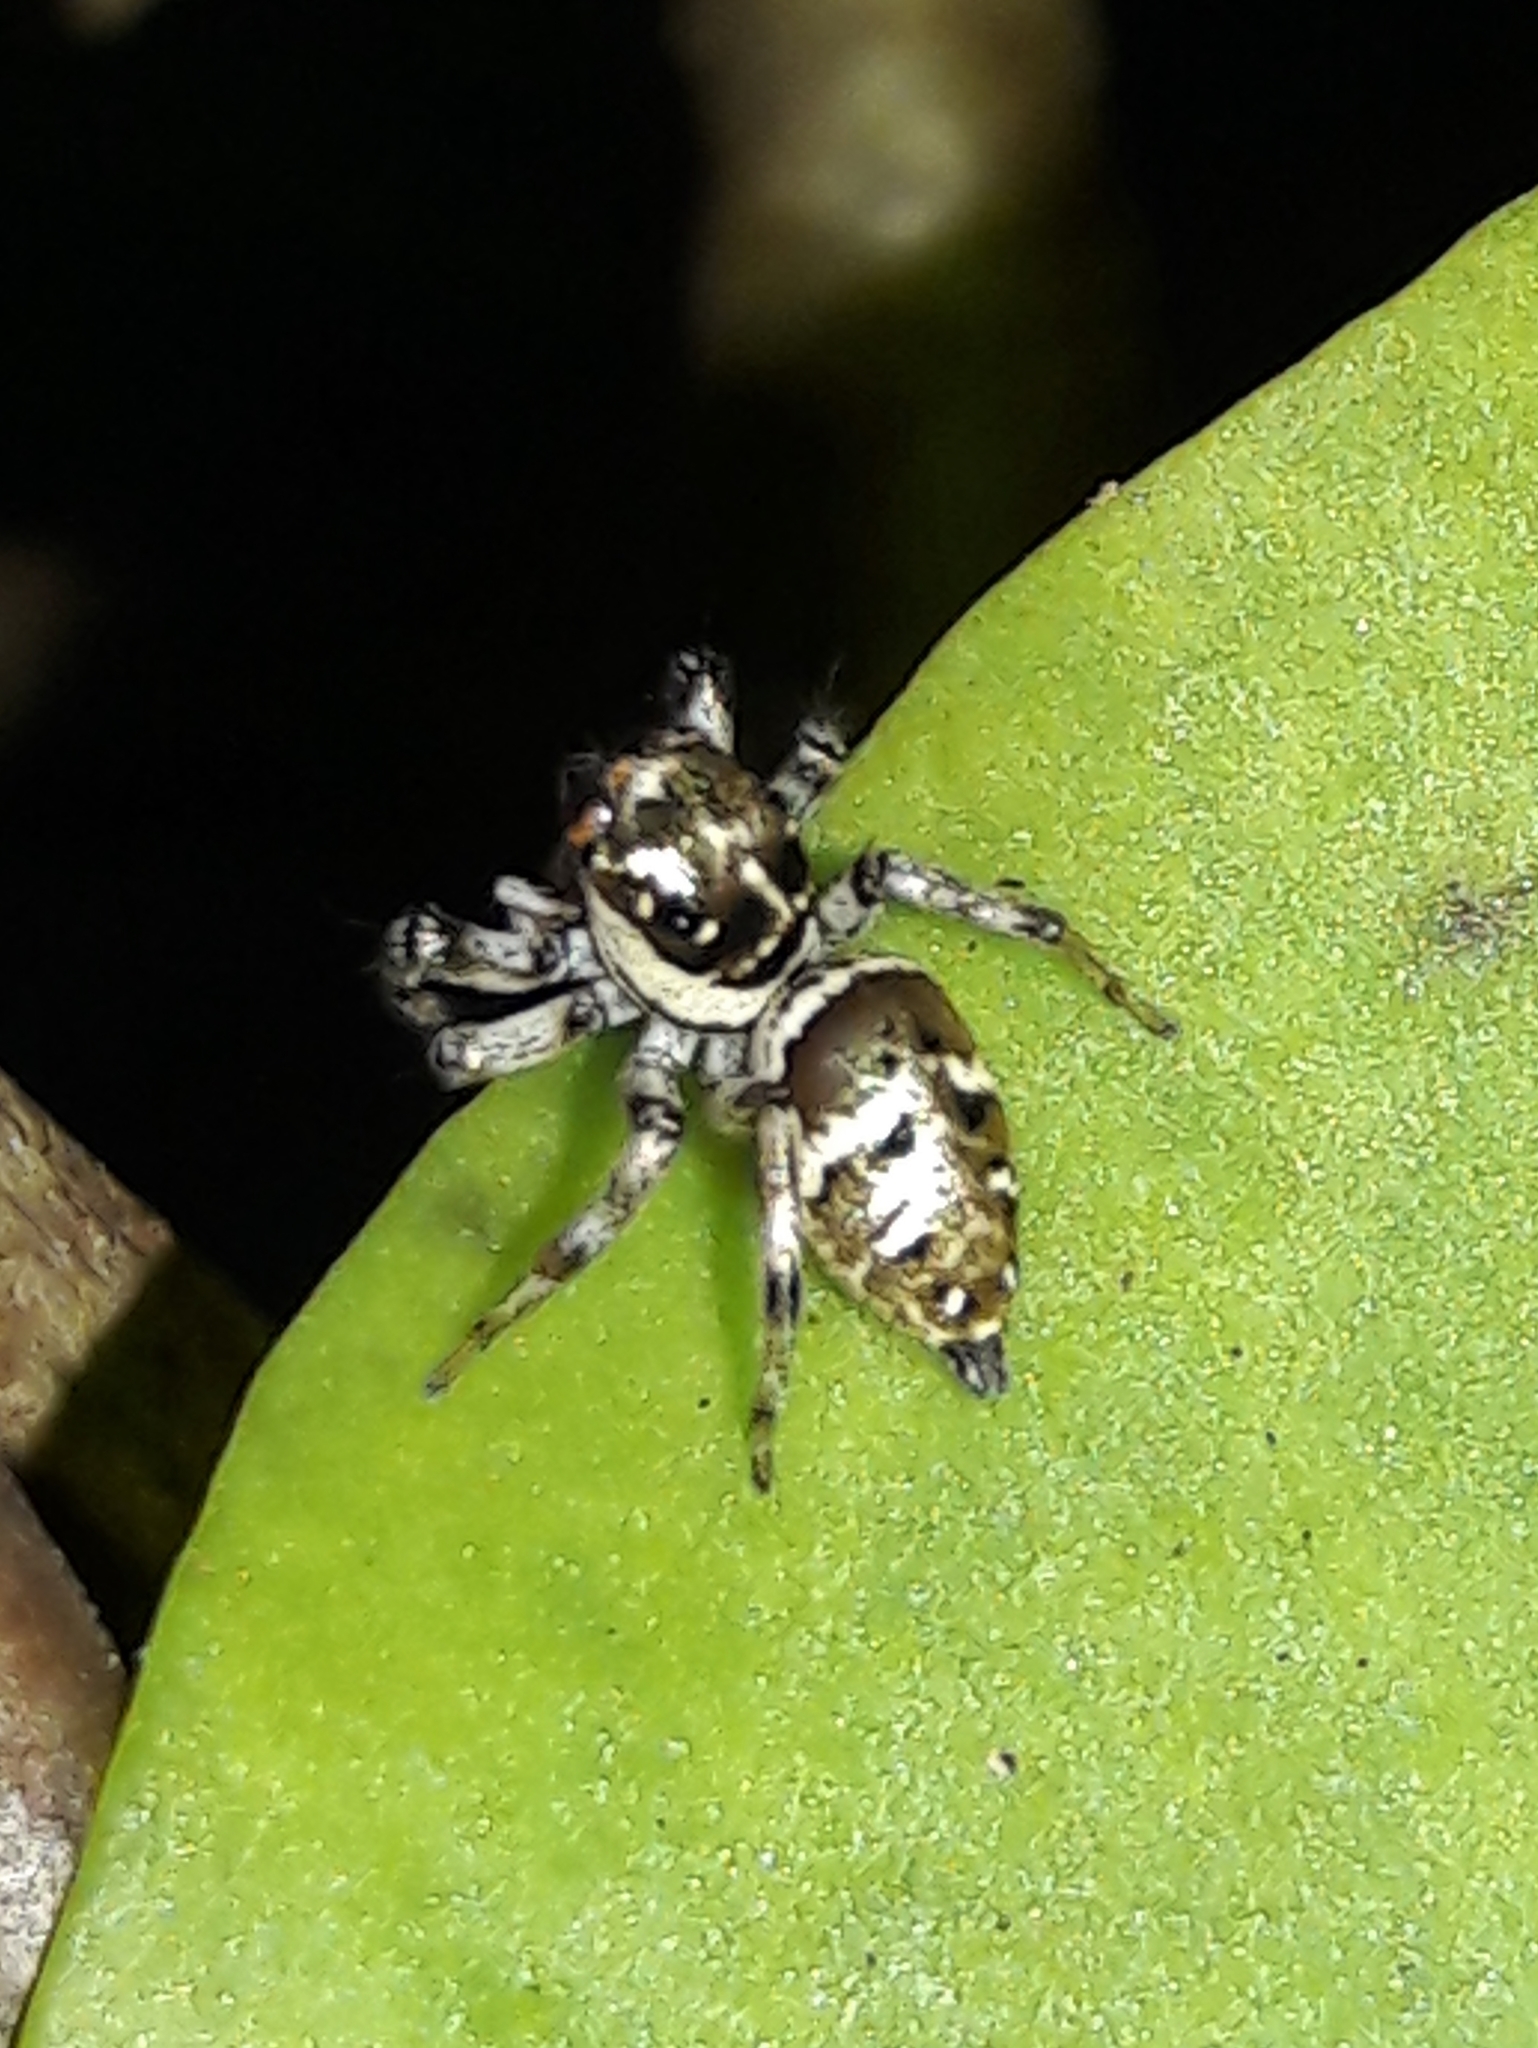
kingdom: Animalia
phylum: Arthropoda
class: Arachnida
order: Araneae
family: Salticidae
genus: Philira
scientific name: Philira micans
